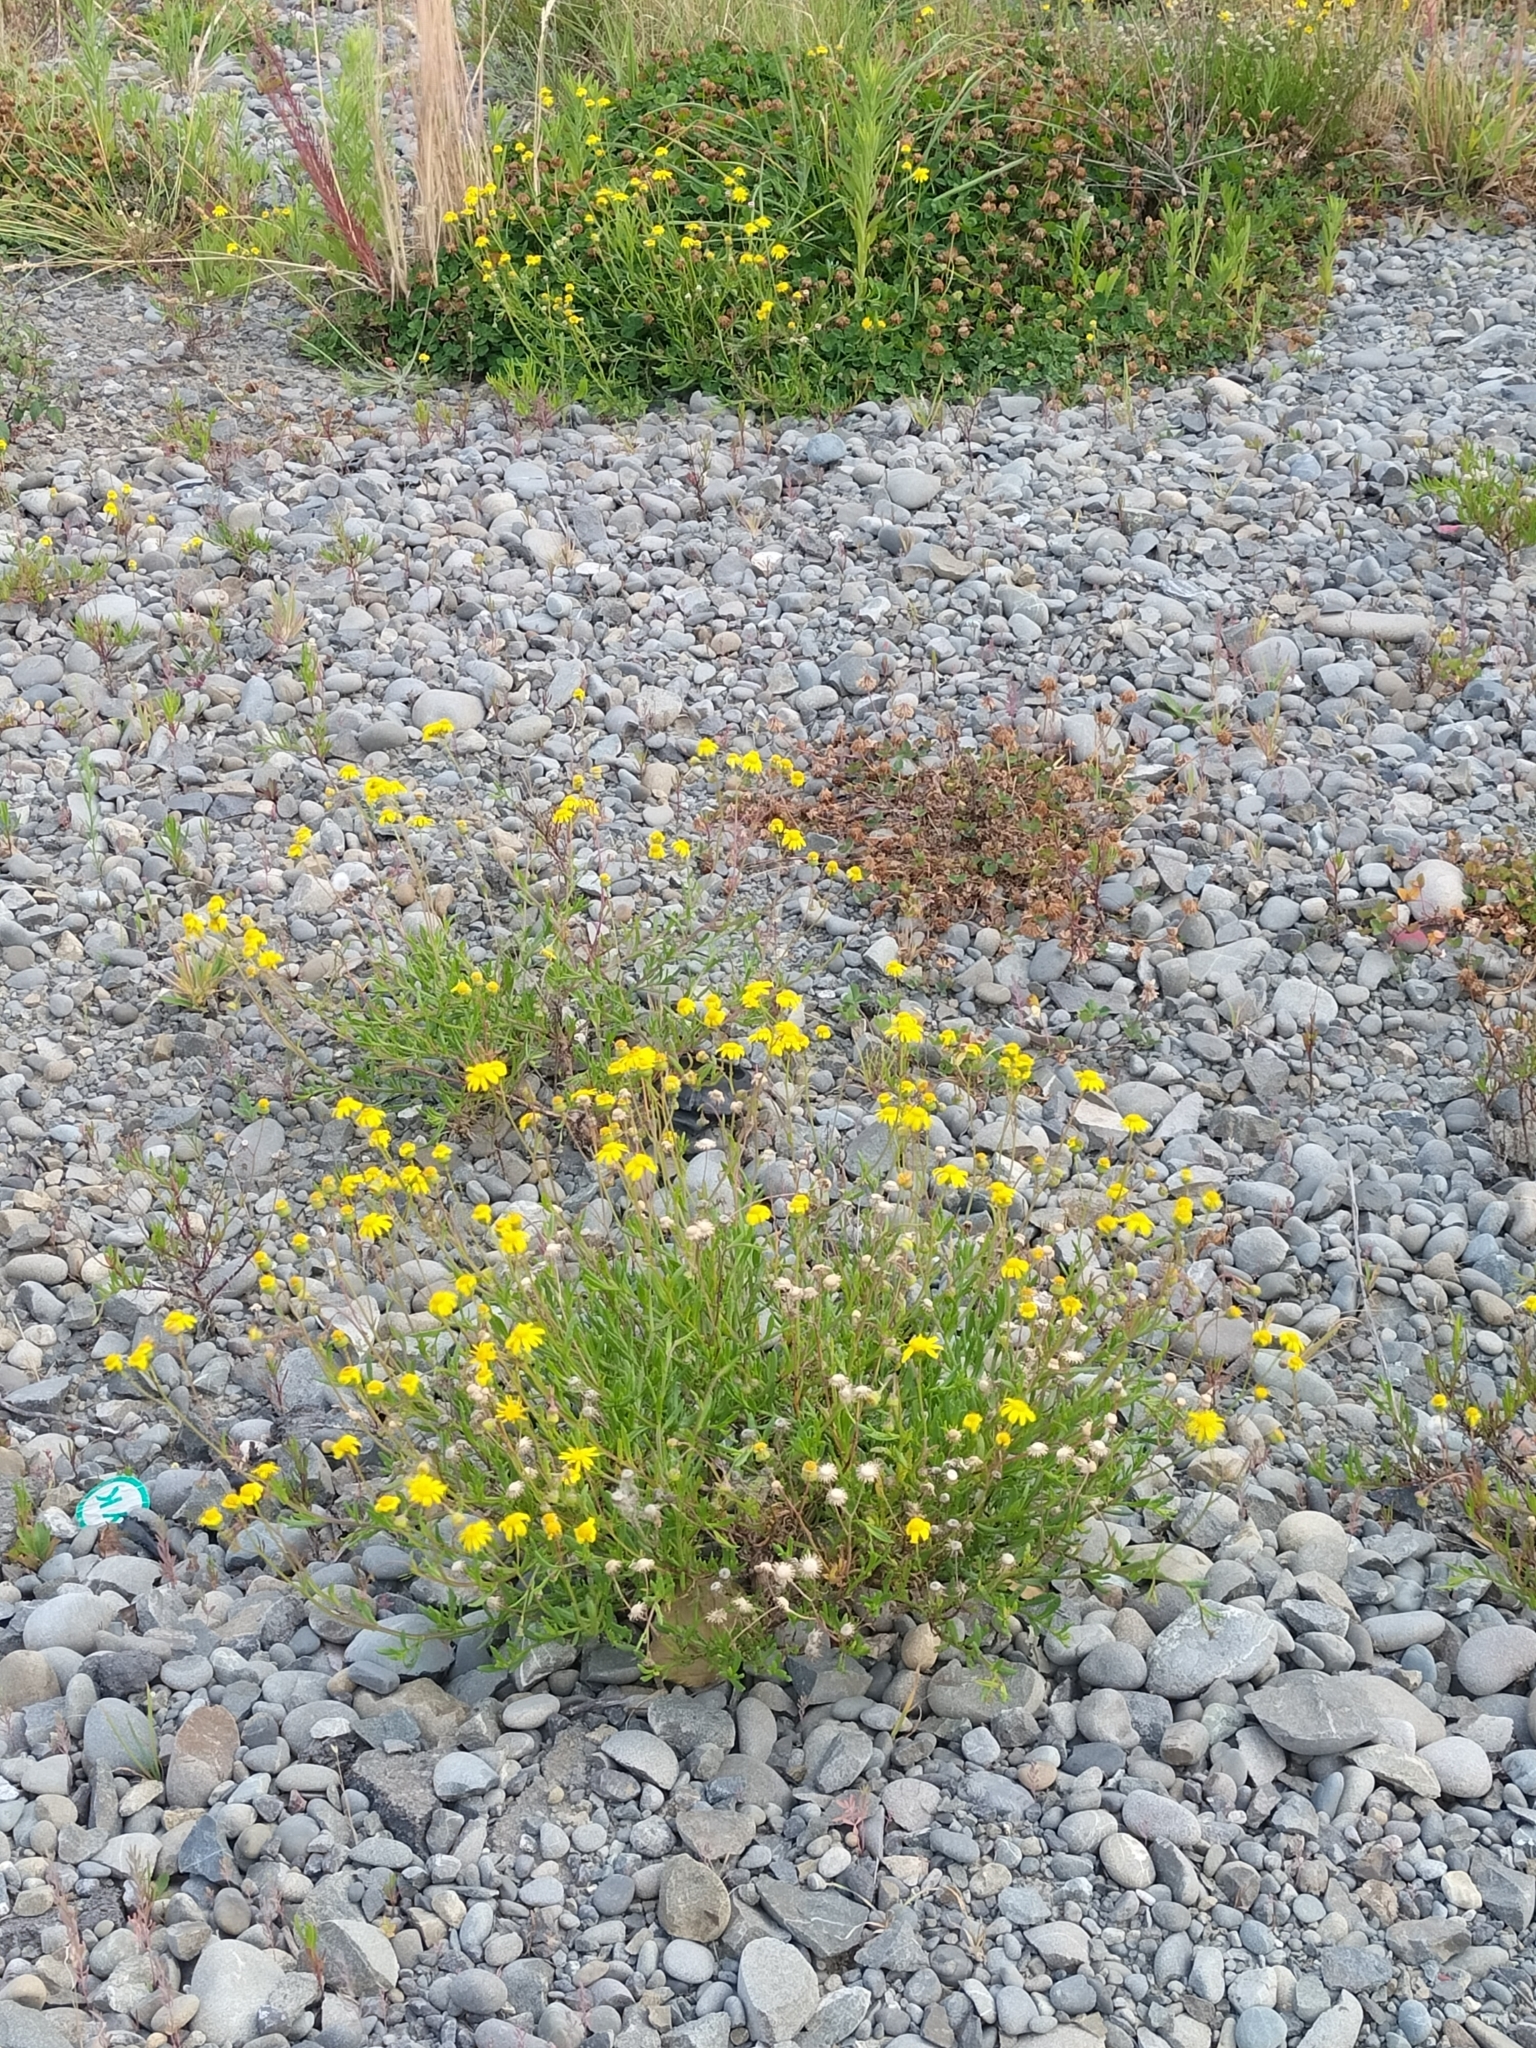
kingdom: Plantae
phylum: Tracheophyta
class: Magnoliopsida
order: Asterales
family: Asteraceae
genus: Senecio
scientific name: Senecio skirrhodon
